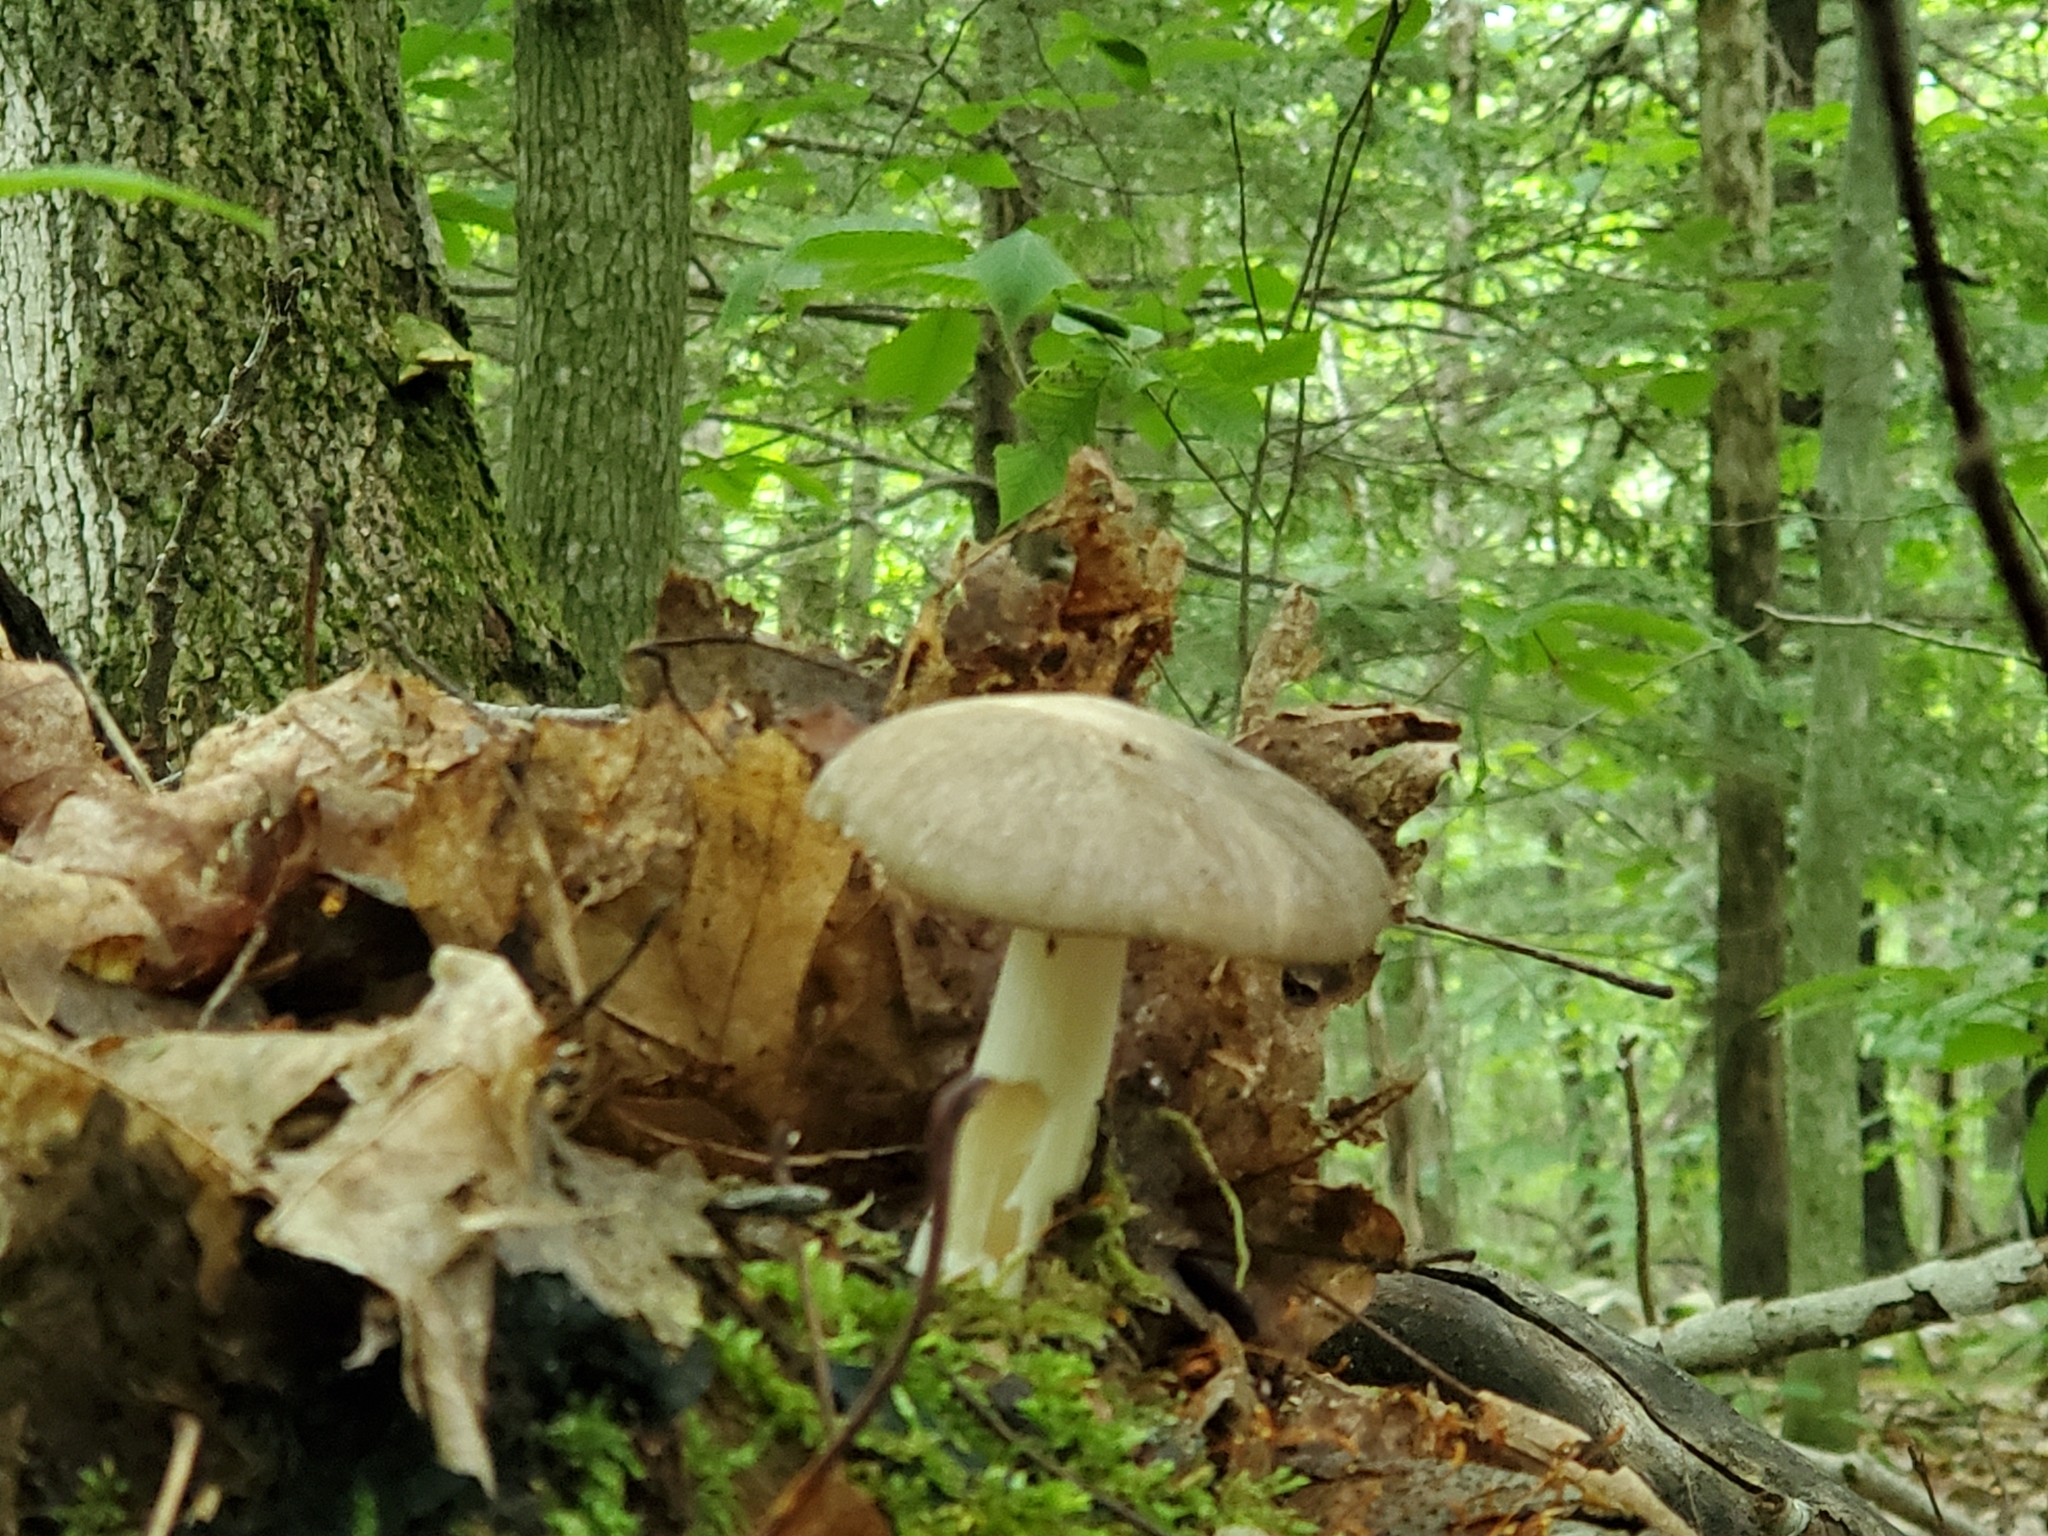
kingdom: Fungi
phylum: Basidiomycota
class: Agaricomycetes
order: Agaricales
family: Tricholomataceae
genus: Megacollybia
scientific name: Megacollybia rodmanii
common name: Eastern american platterful mushroom
